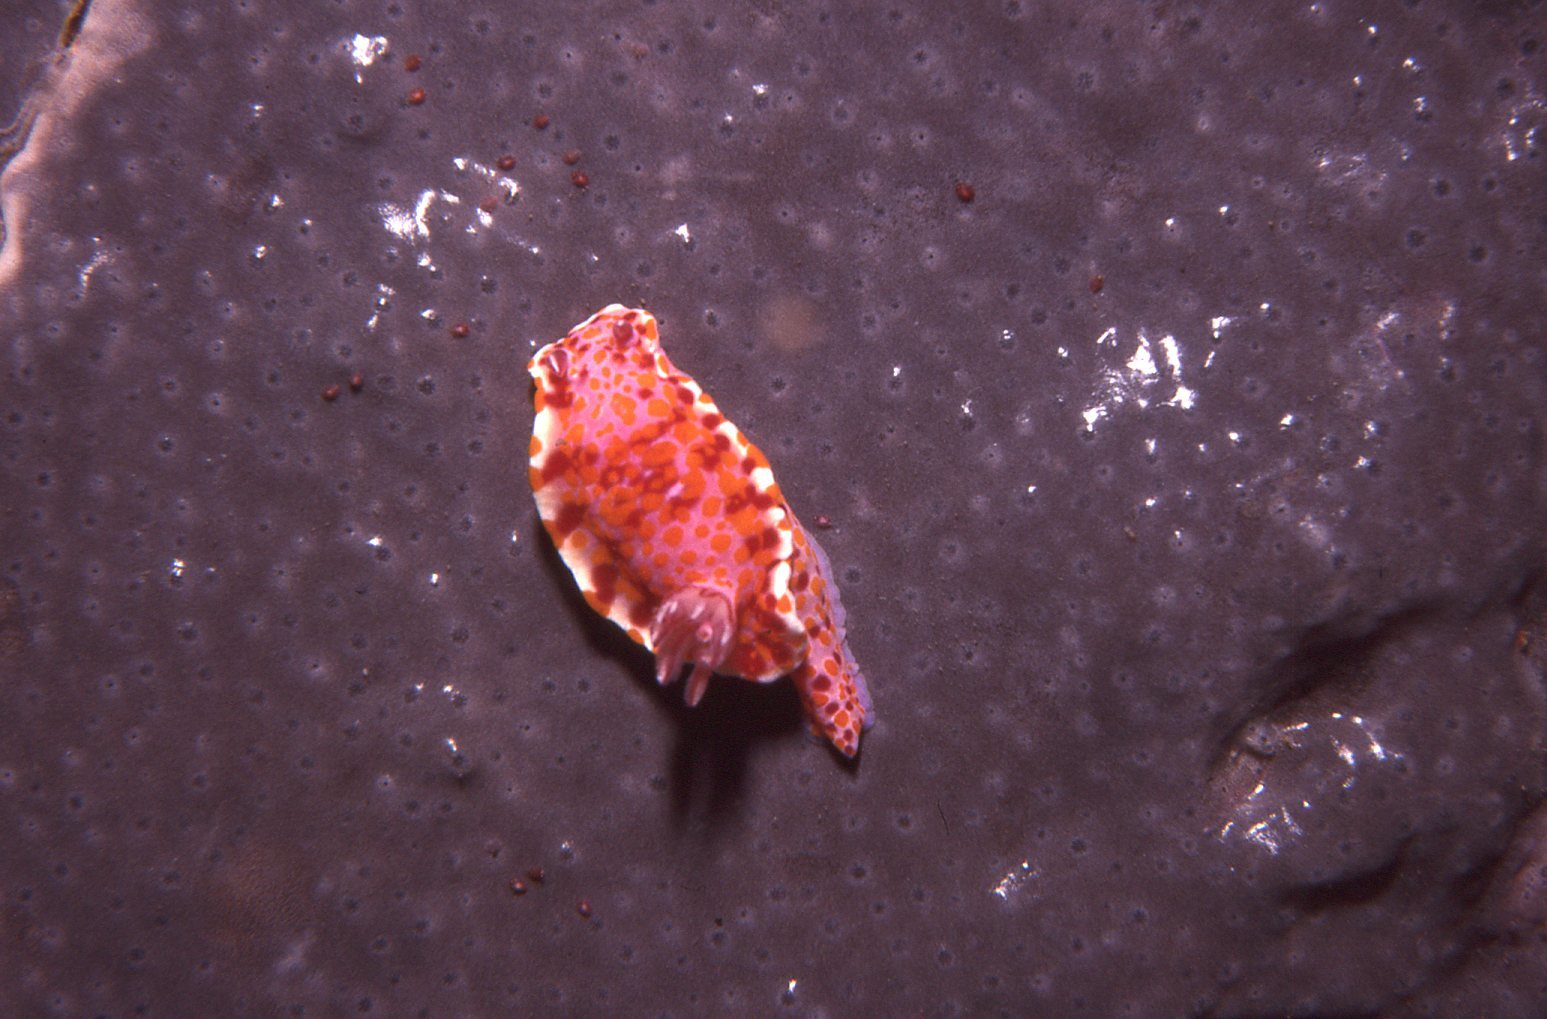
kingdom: Animalia
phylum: Mollusca
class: Gastropoda
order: Nudibranchia
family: Chromodorididae
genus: Ceratosoma
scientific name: Ceratosoma amoenum
